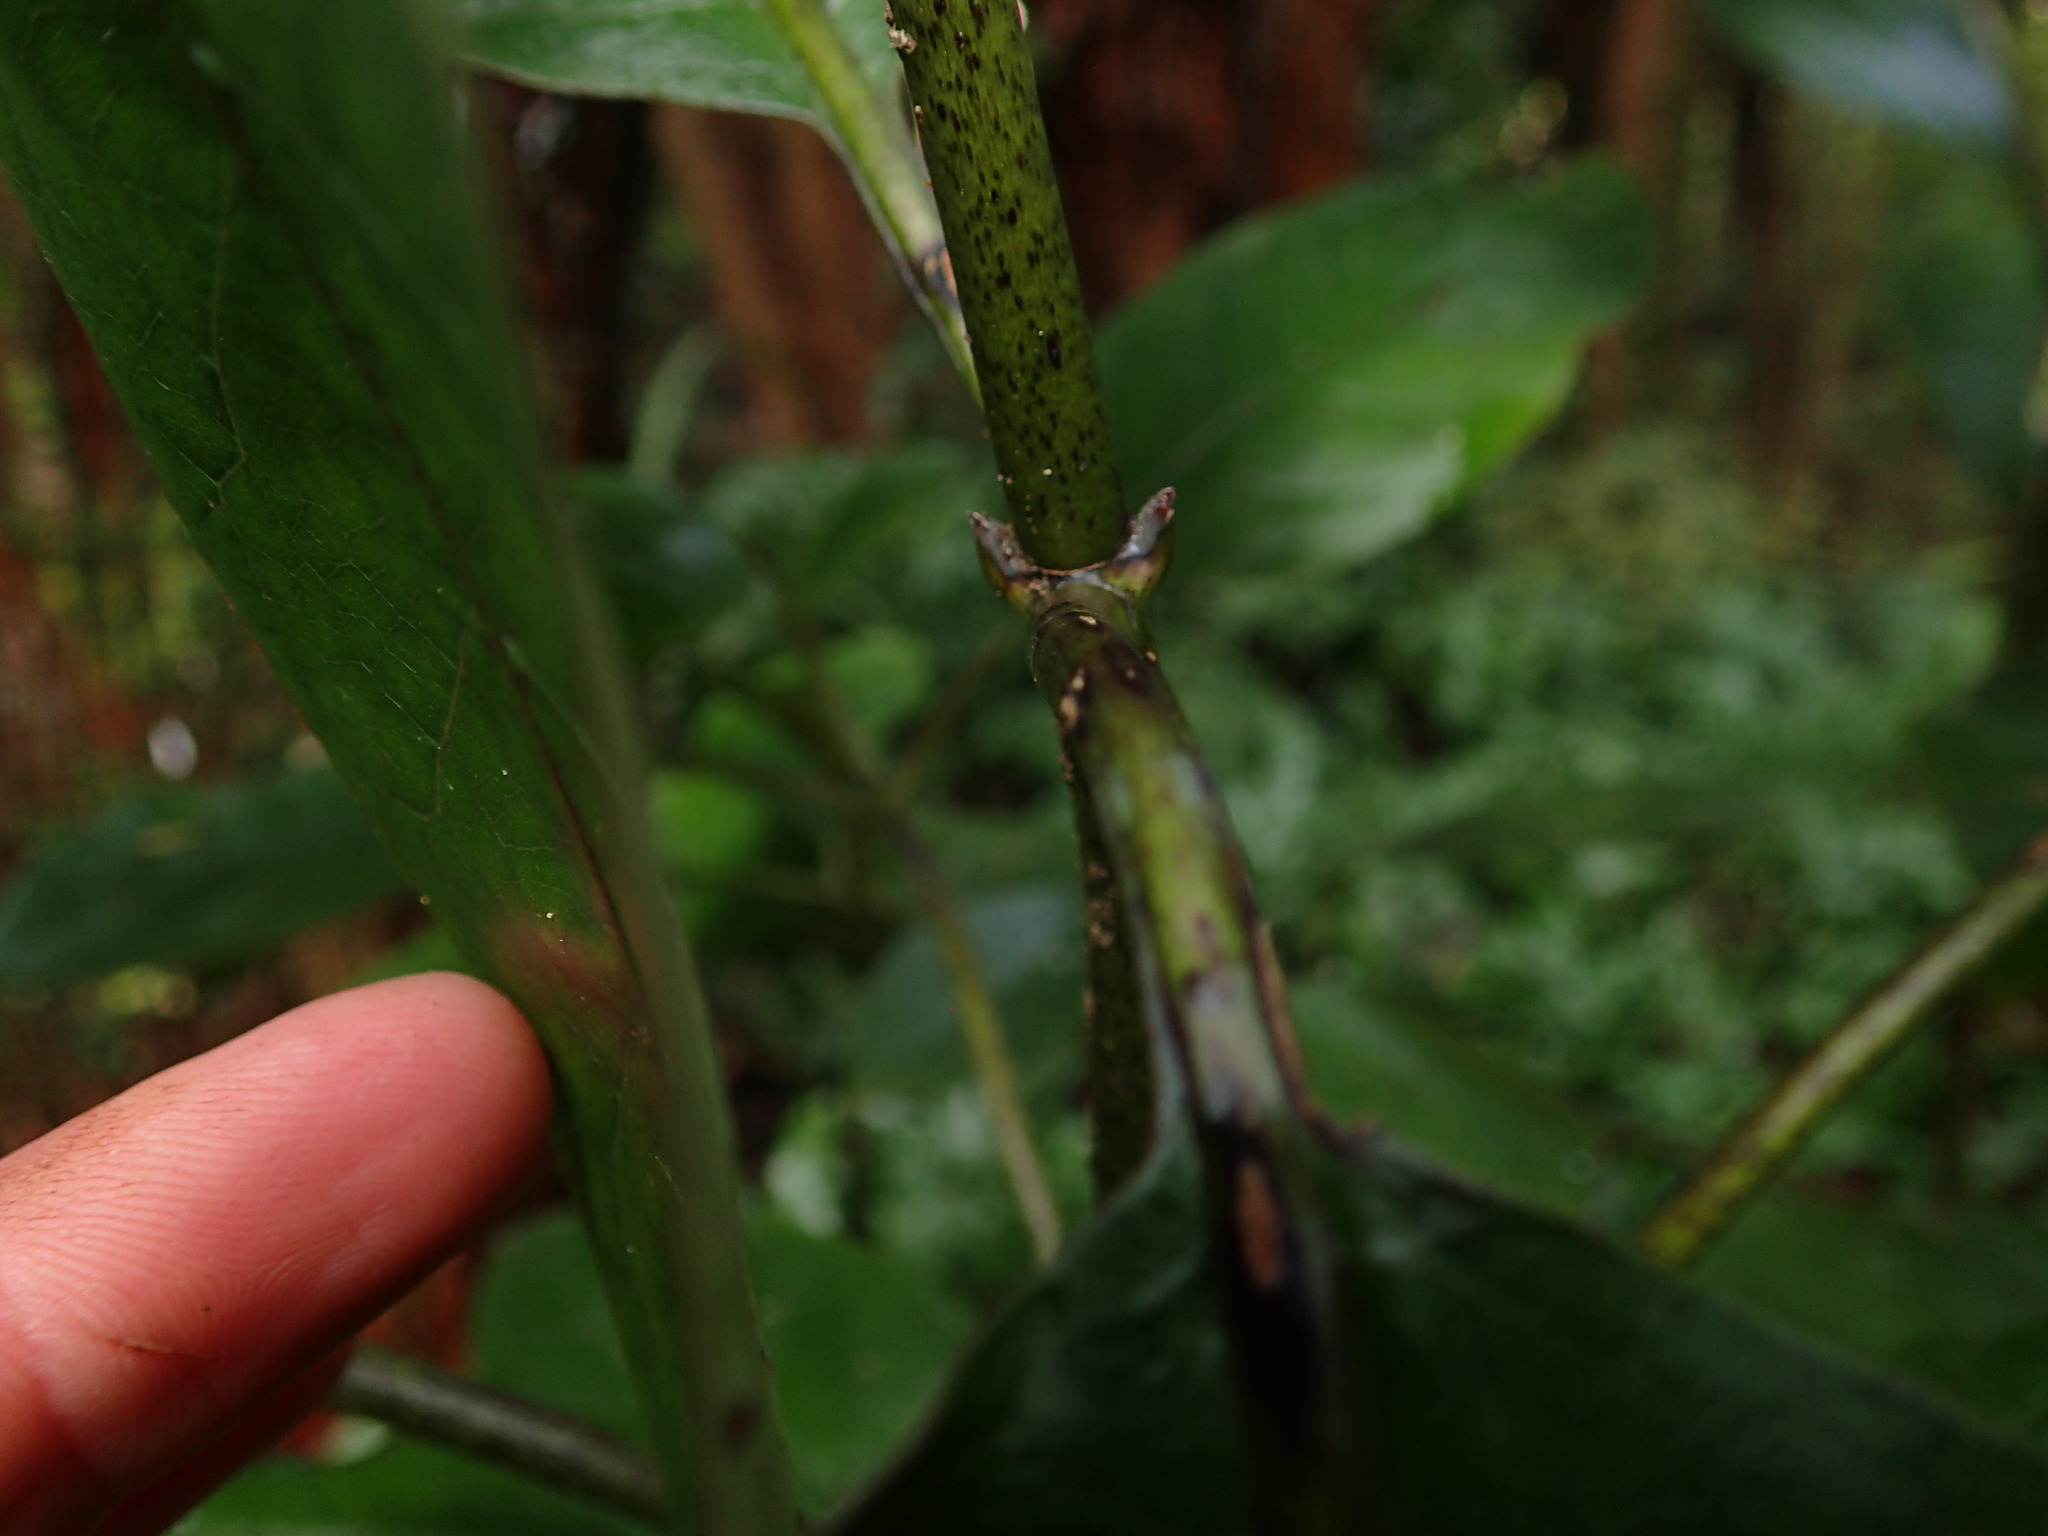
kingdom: Plantae
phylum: Tracheophyta
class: Magnoliopsida
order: Gentianales
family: Rubiaceae
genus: Coprosma
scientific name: Coprosma autumnalis
